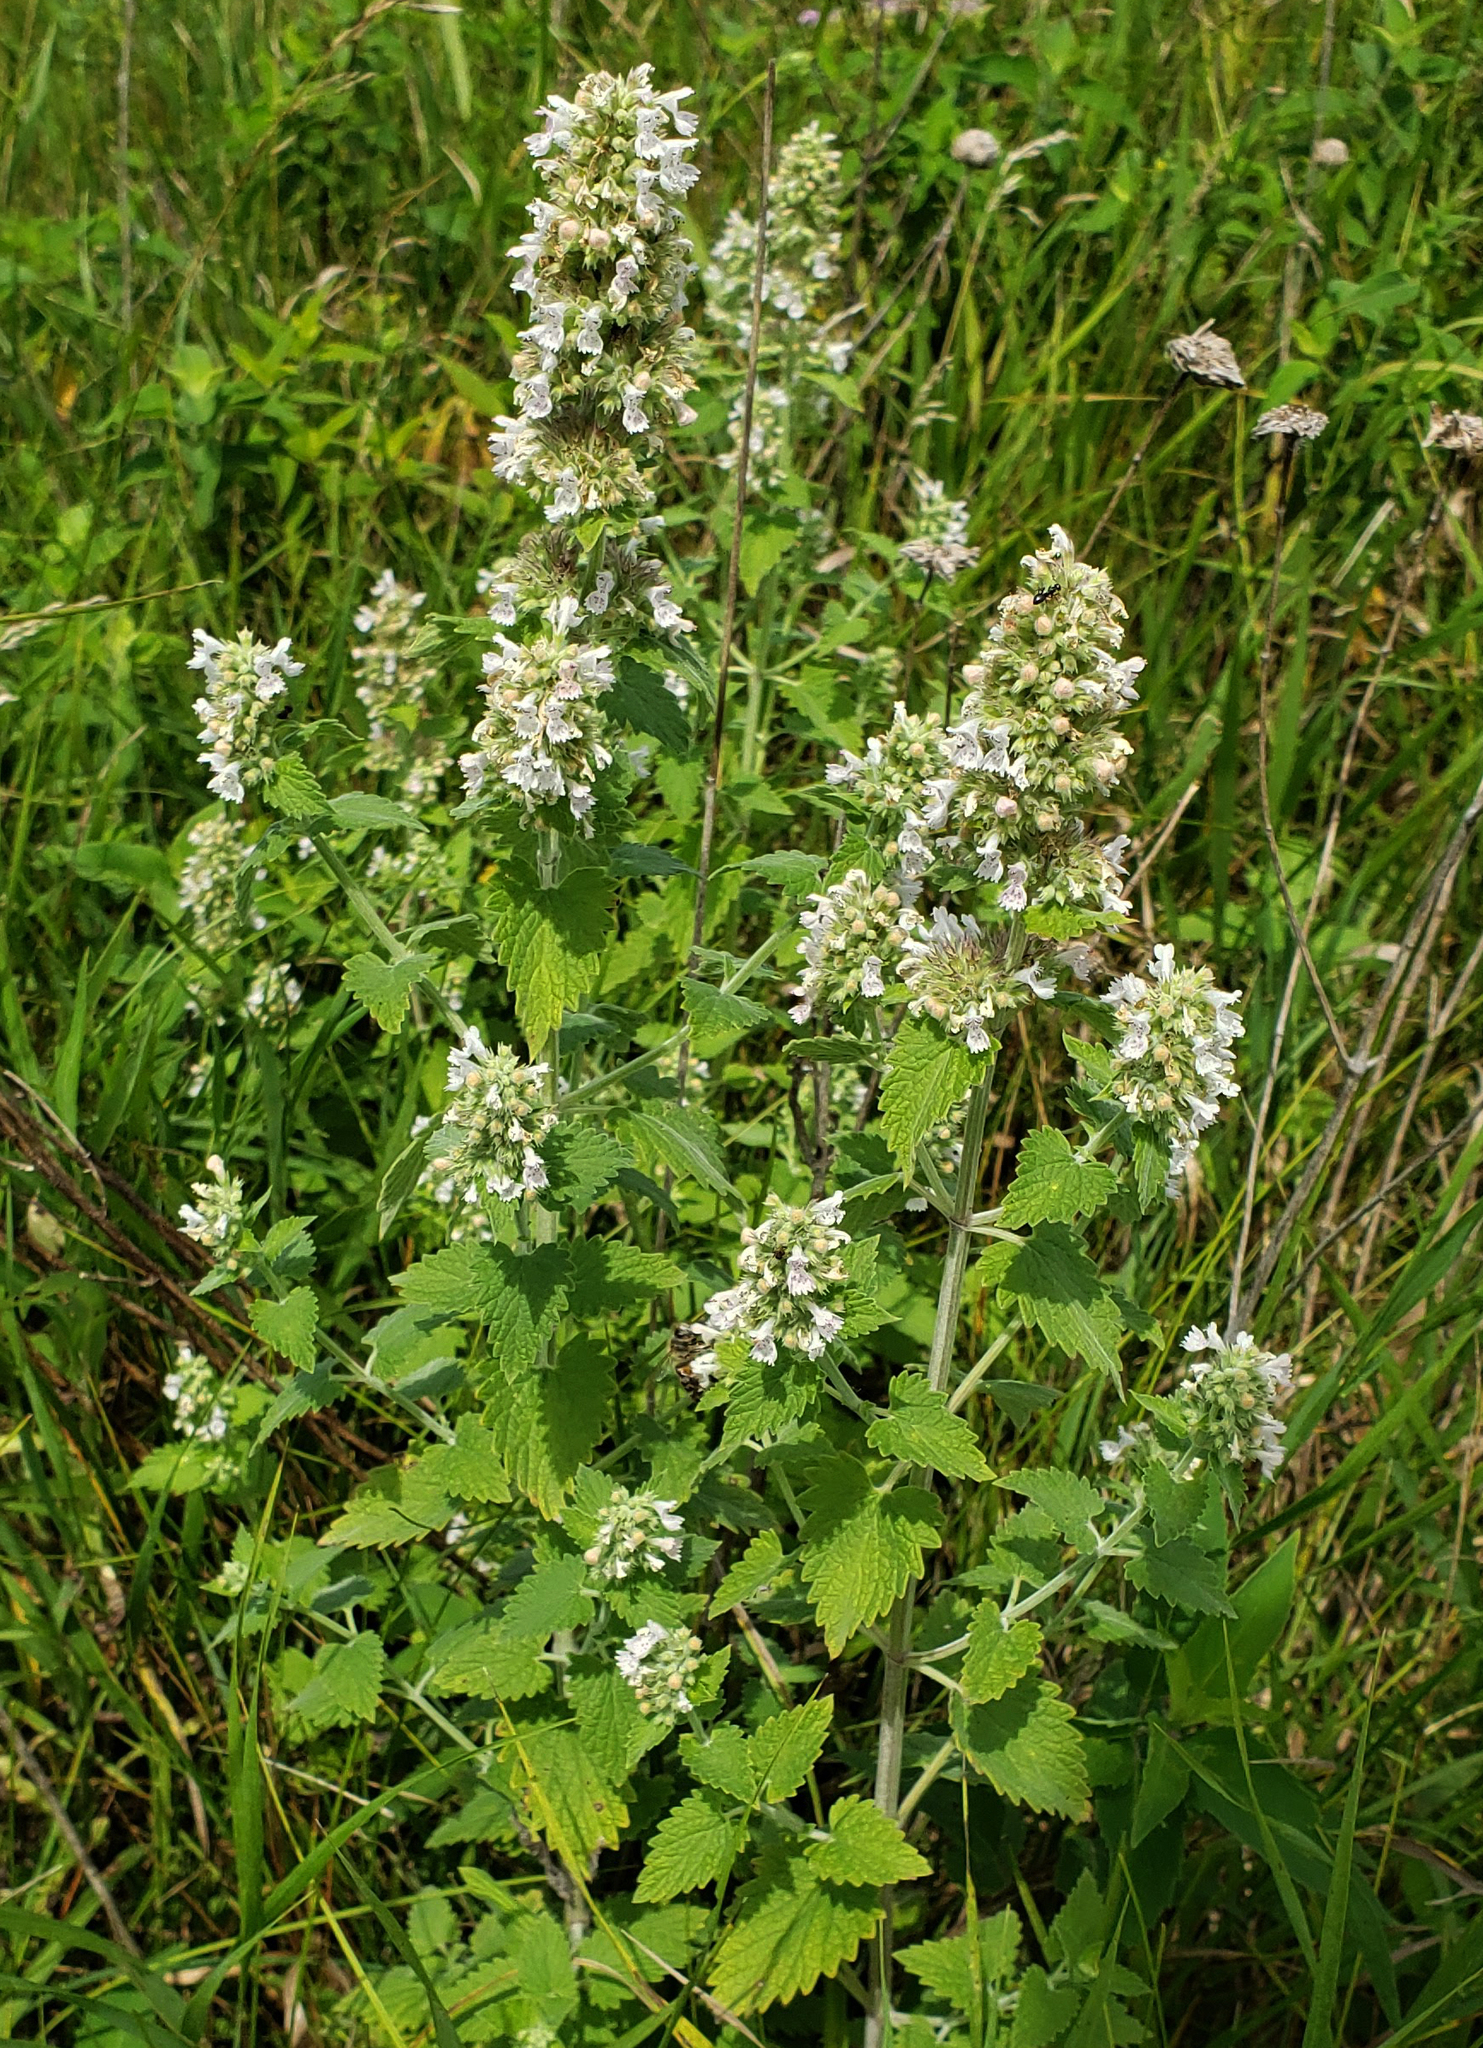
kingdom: Plantae
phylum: Tracheophyta
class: Magnoliopsida
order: Lamiales
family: Lamiaceae
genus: Nepeta
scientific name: Nepeta cataria
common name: Catnip
